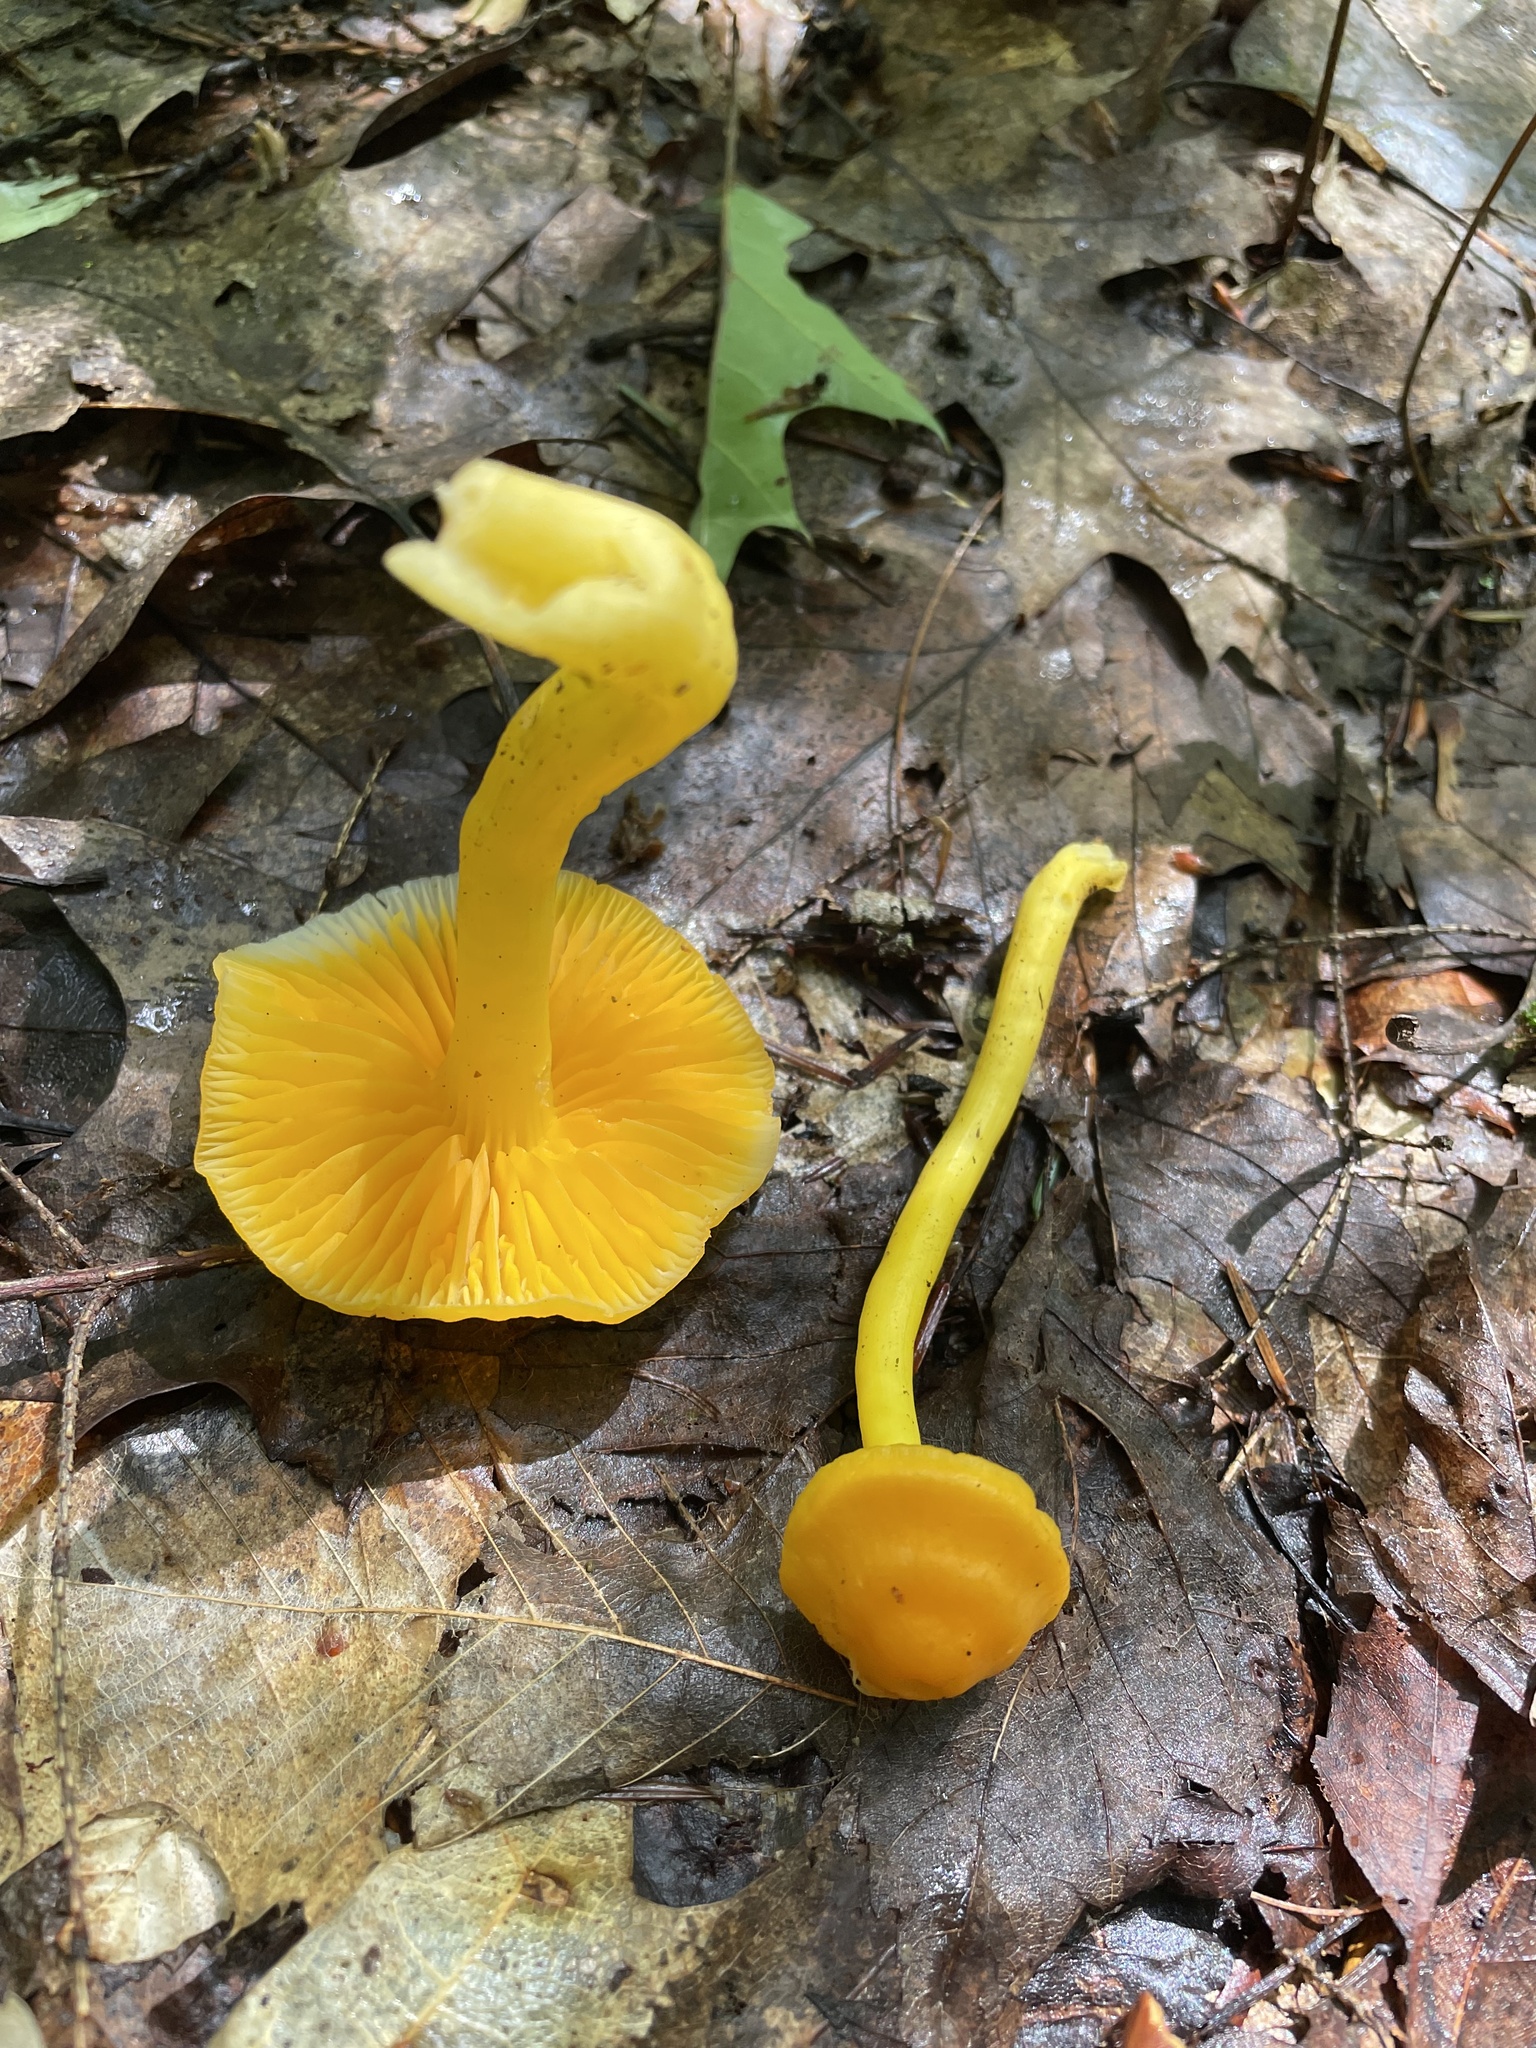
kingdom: Fungi
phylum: Basidiomycota
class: Agaricomycetes
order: Agaricales
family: Hygrophoraceae
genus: Humidicutis
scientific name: Humidicutis marginata
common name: Orange gilled waxcap
